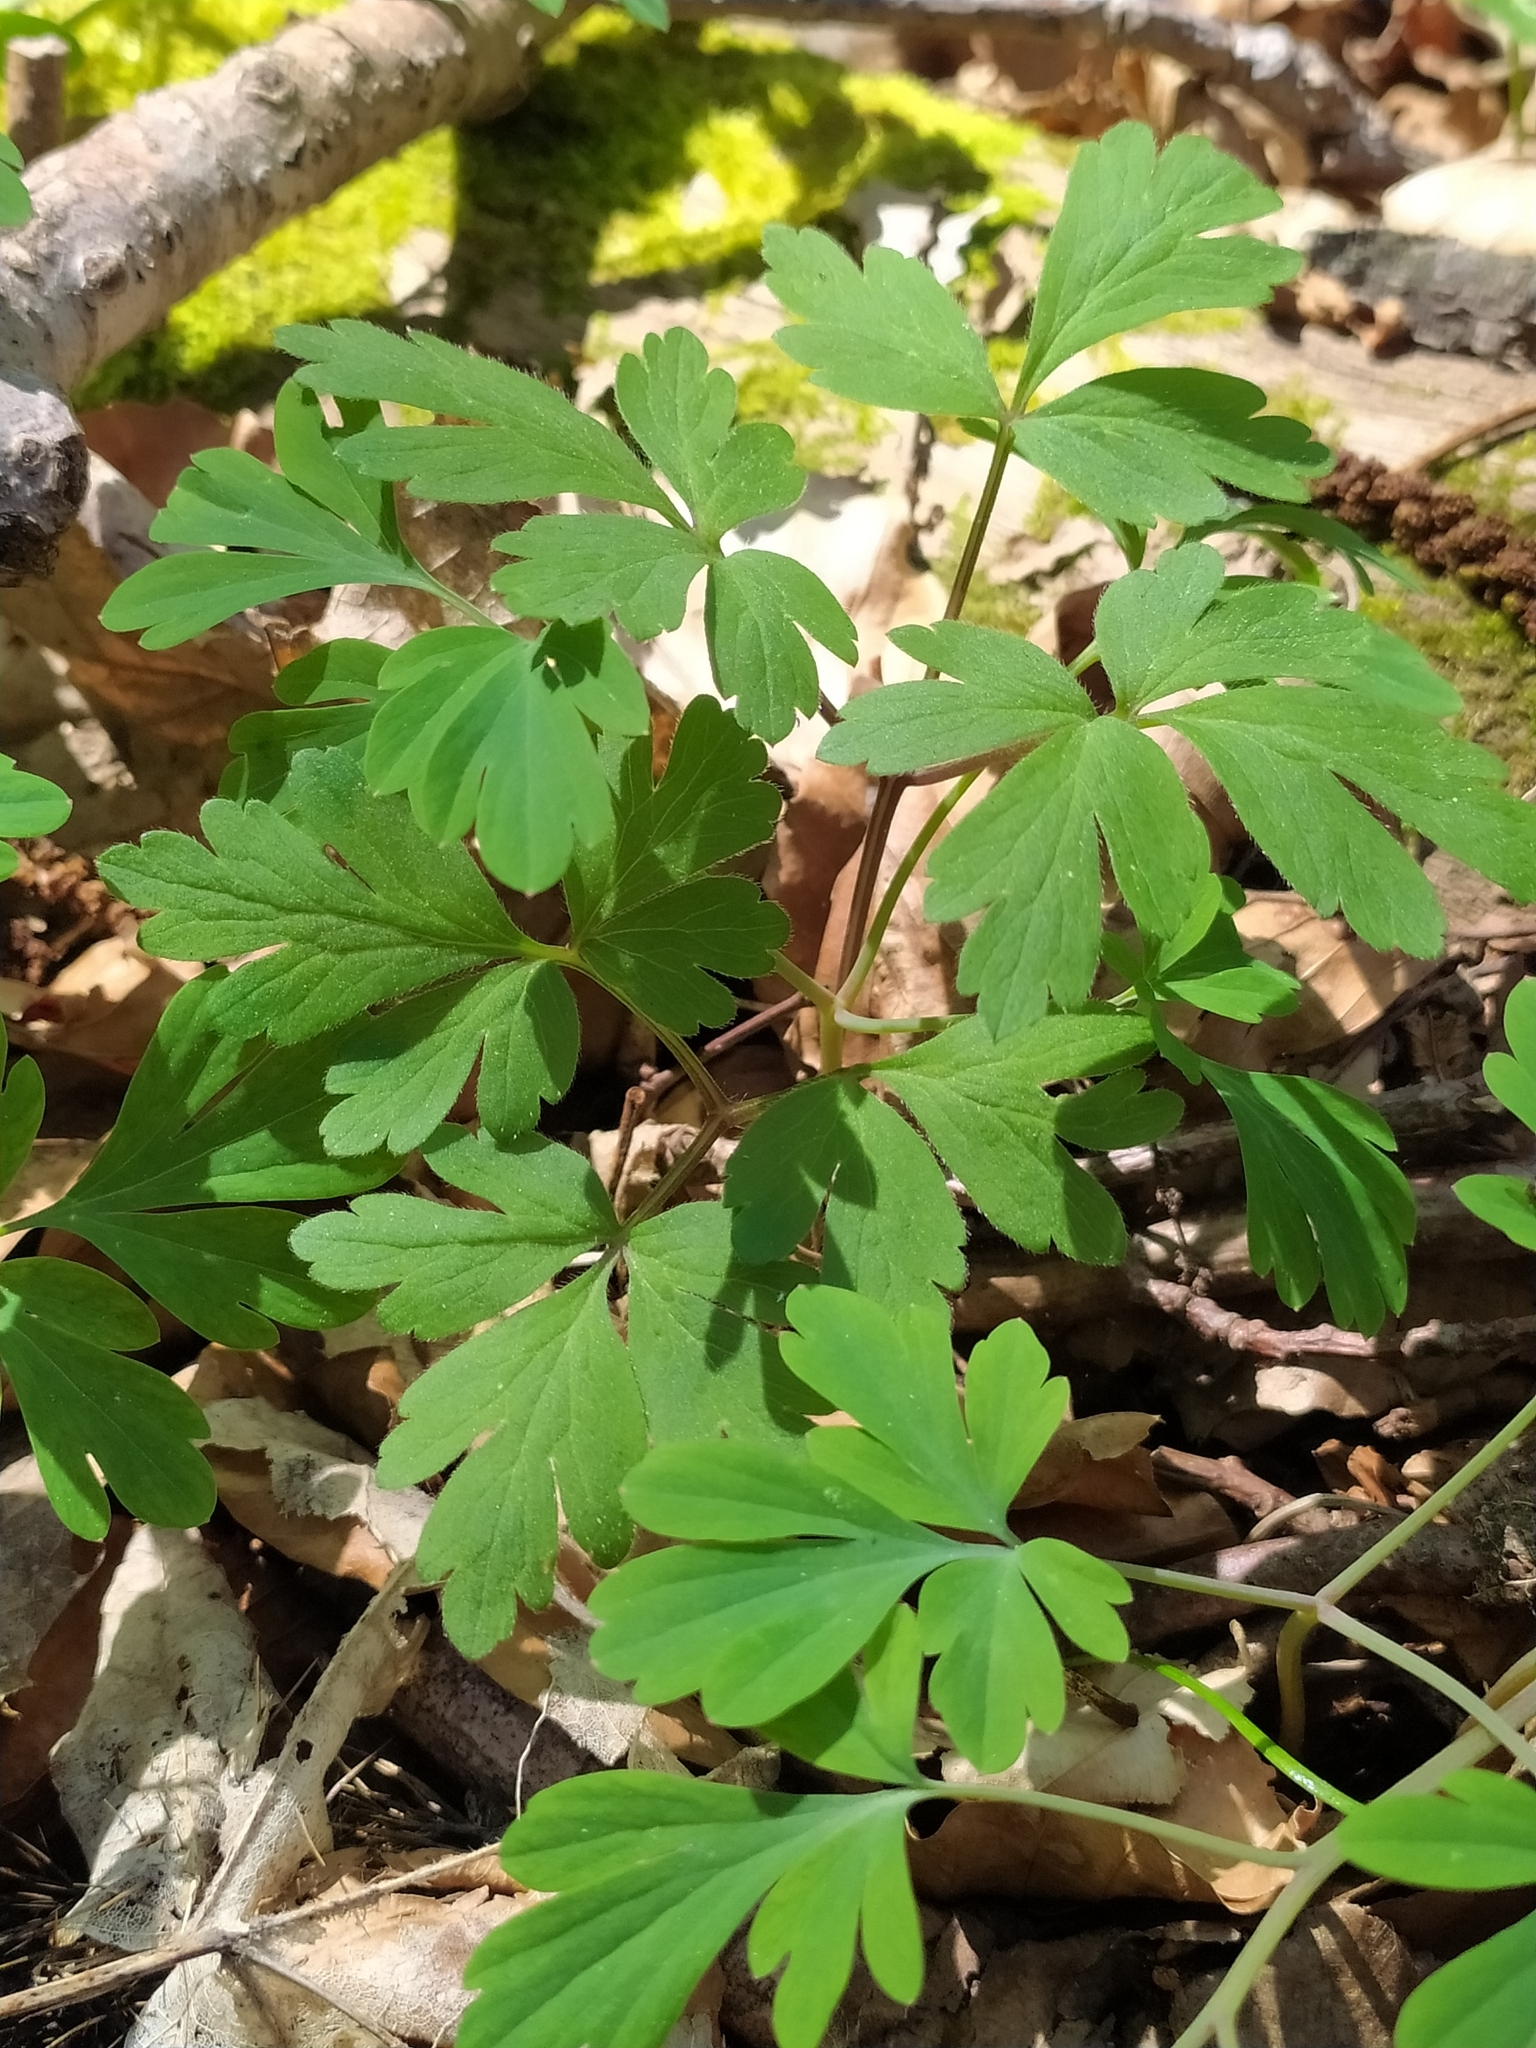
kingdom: Plantae
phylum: Tracheophyta
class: Magnoliopsida
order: Ranunculales
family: Papaveraceae
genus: Corydalis
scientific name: Corydalis cava
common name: Hollowroot
